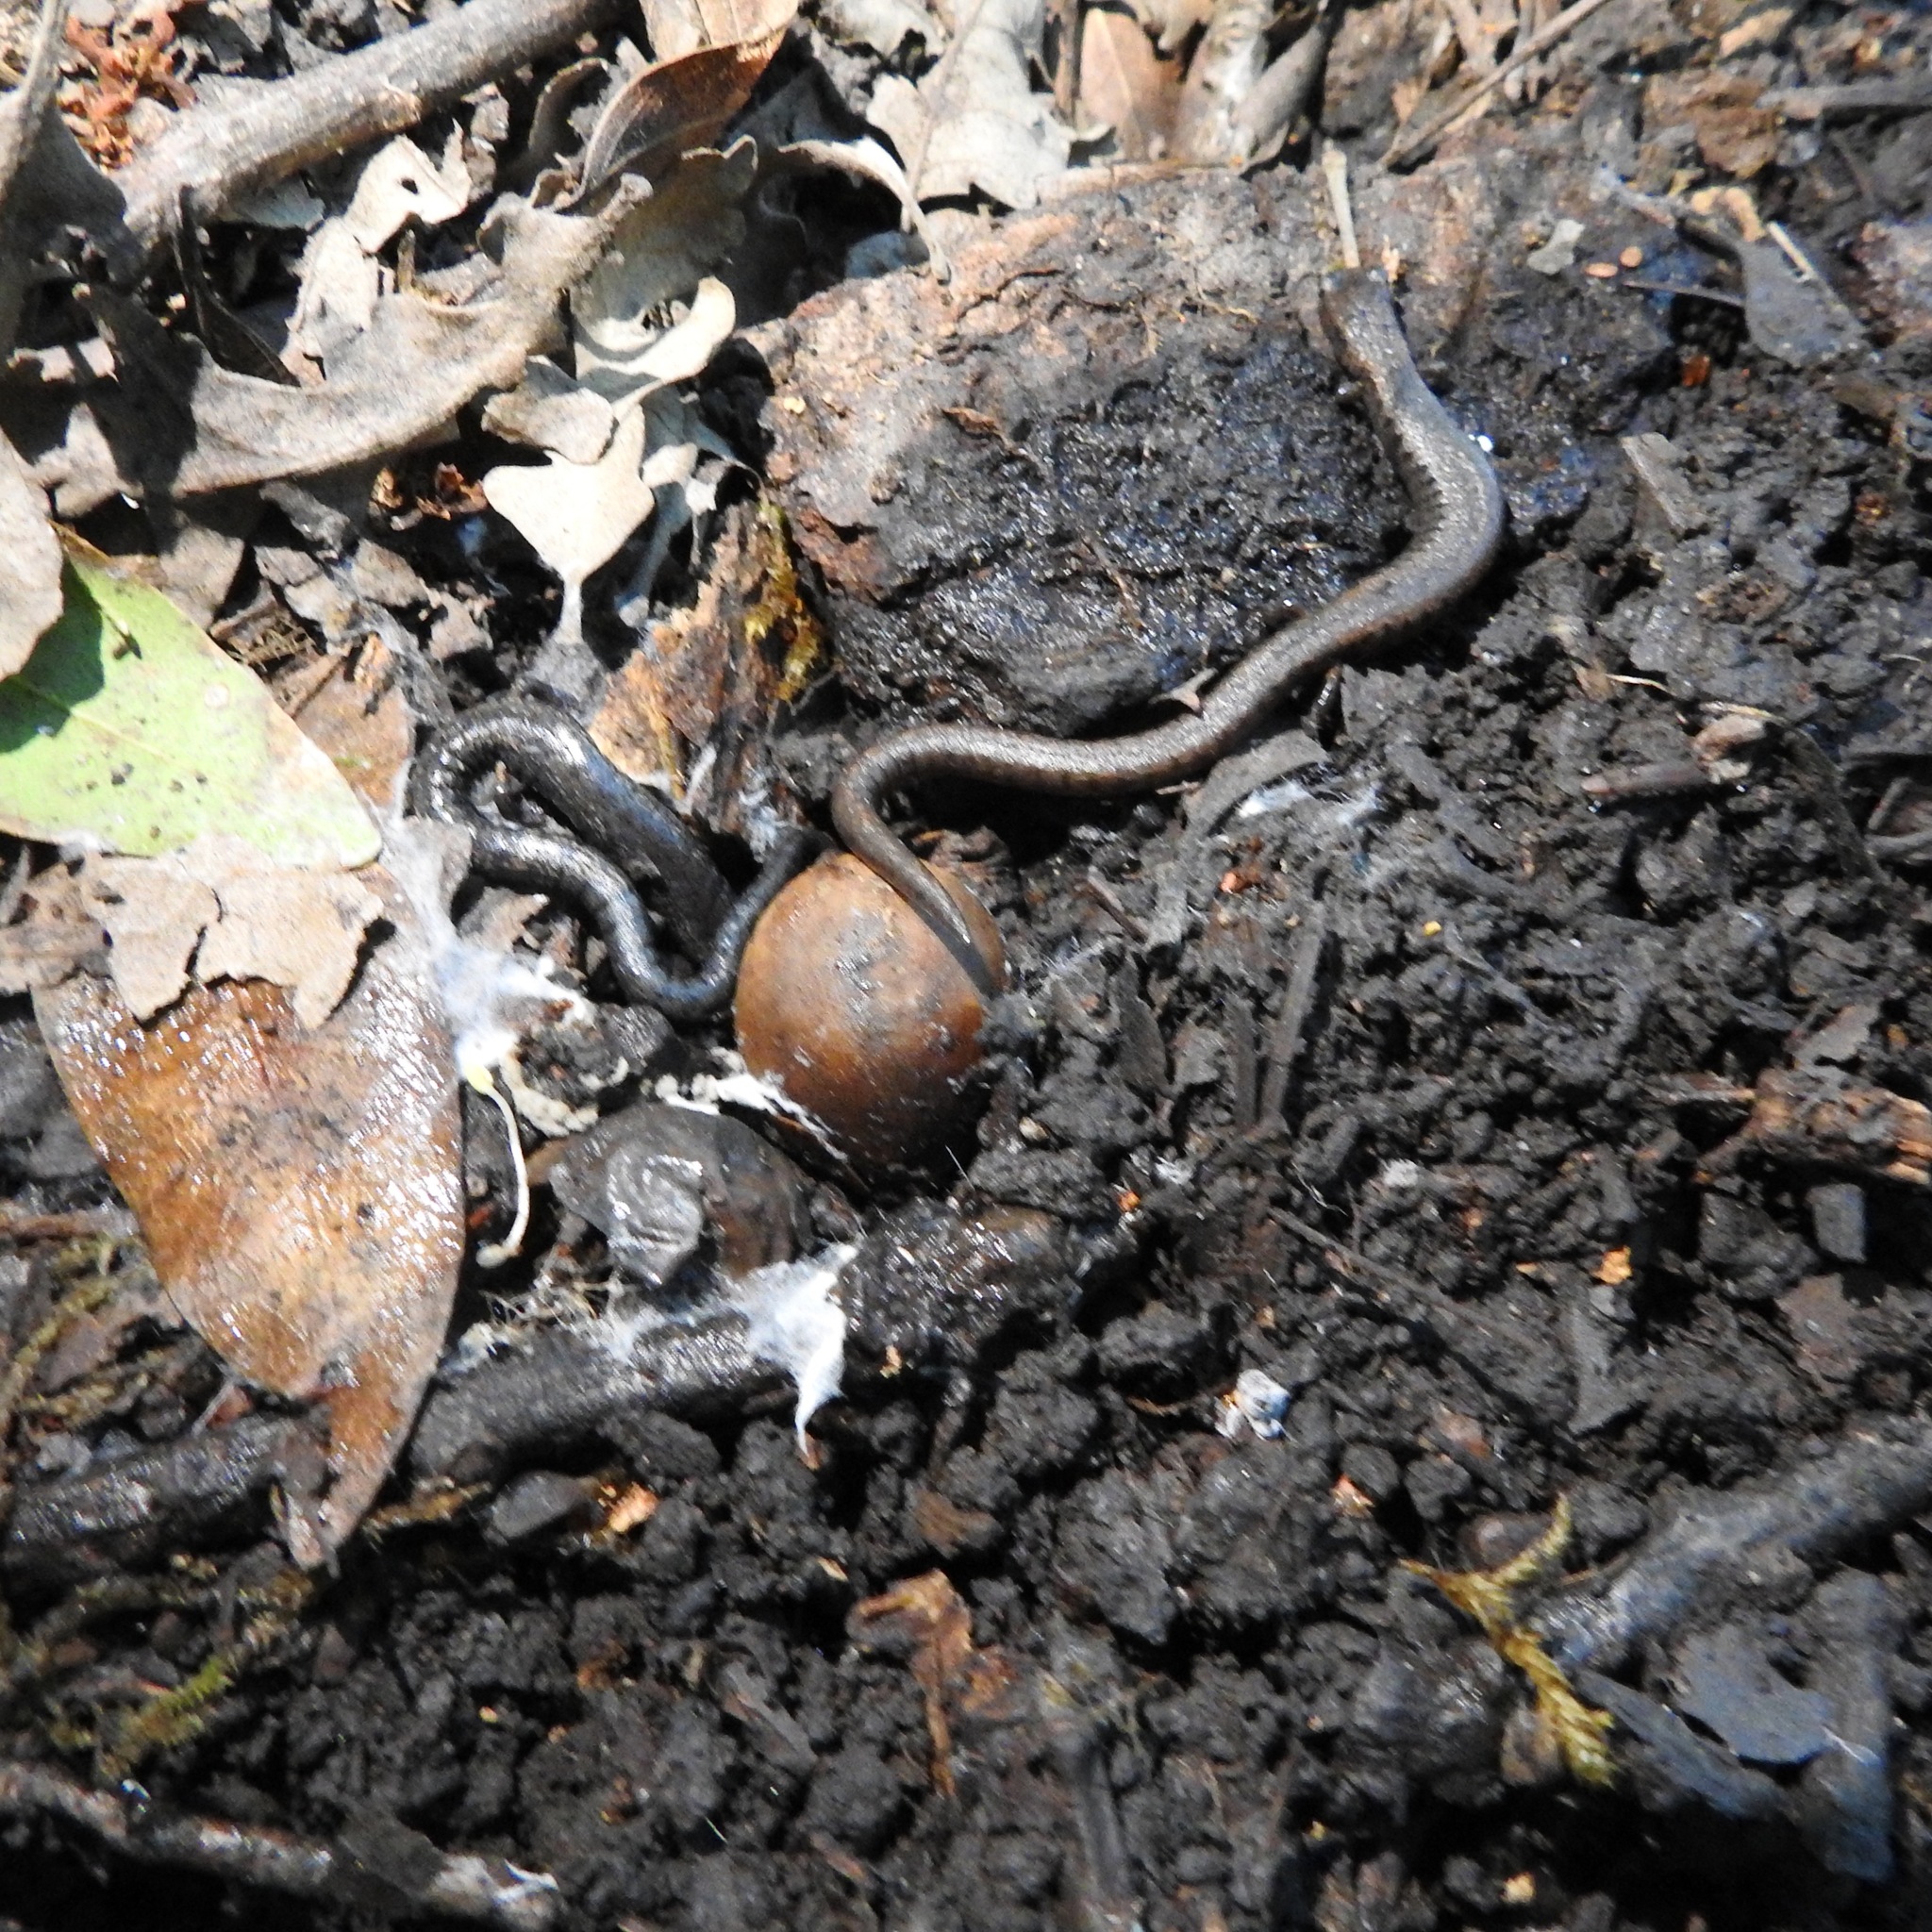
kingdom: Animalia
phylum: Chordata
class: Amphibia
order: Caudata
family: Plethodontidae
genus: Batrachoseps
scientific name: Batrachoseps attenuatus
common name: California slender salamander
